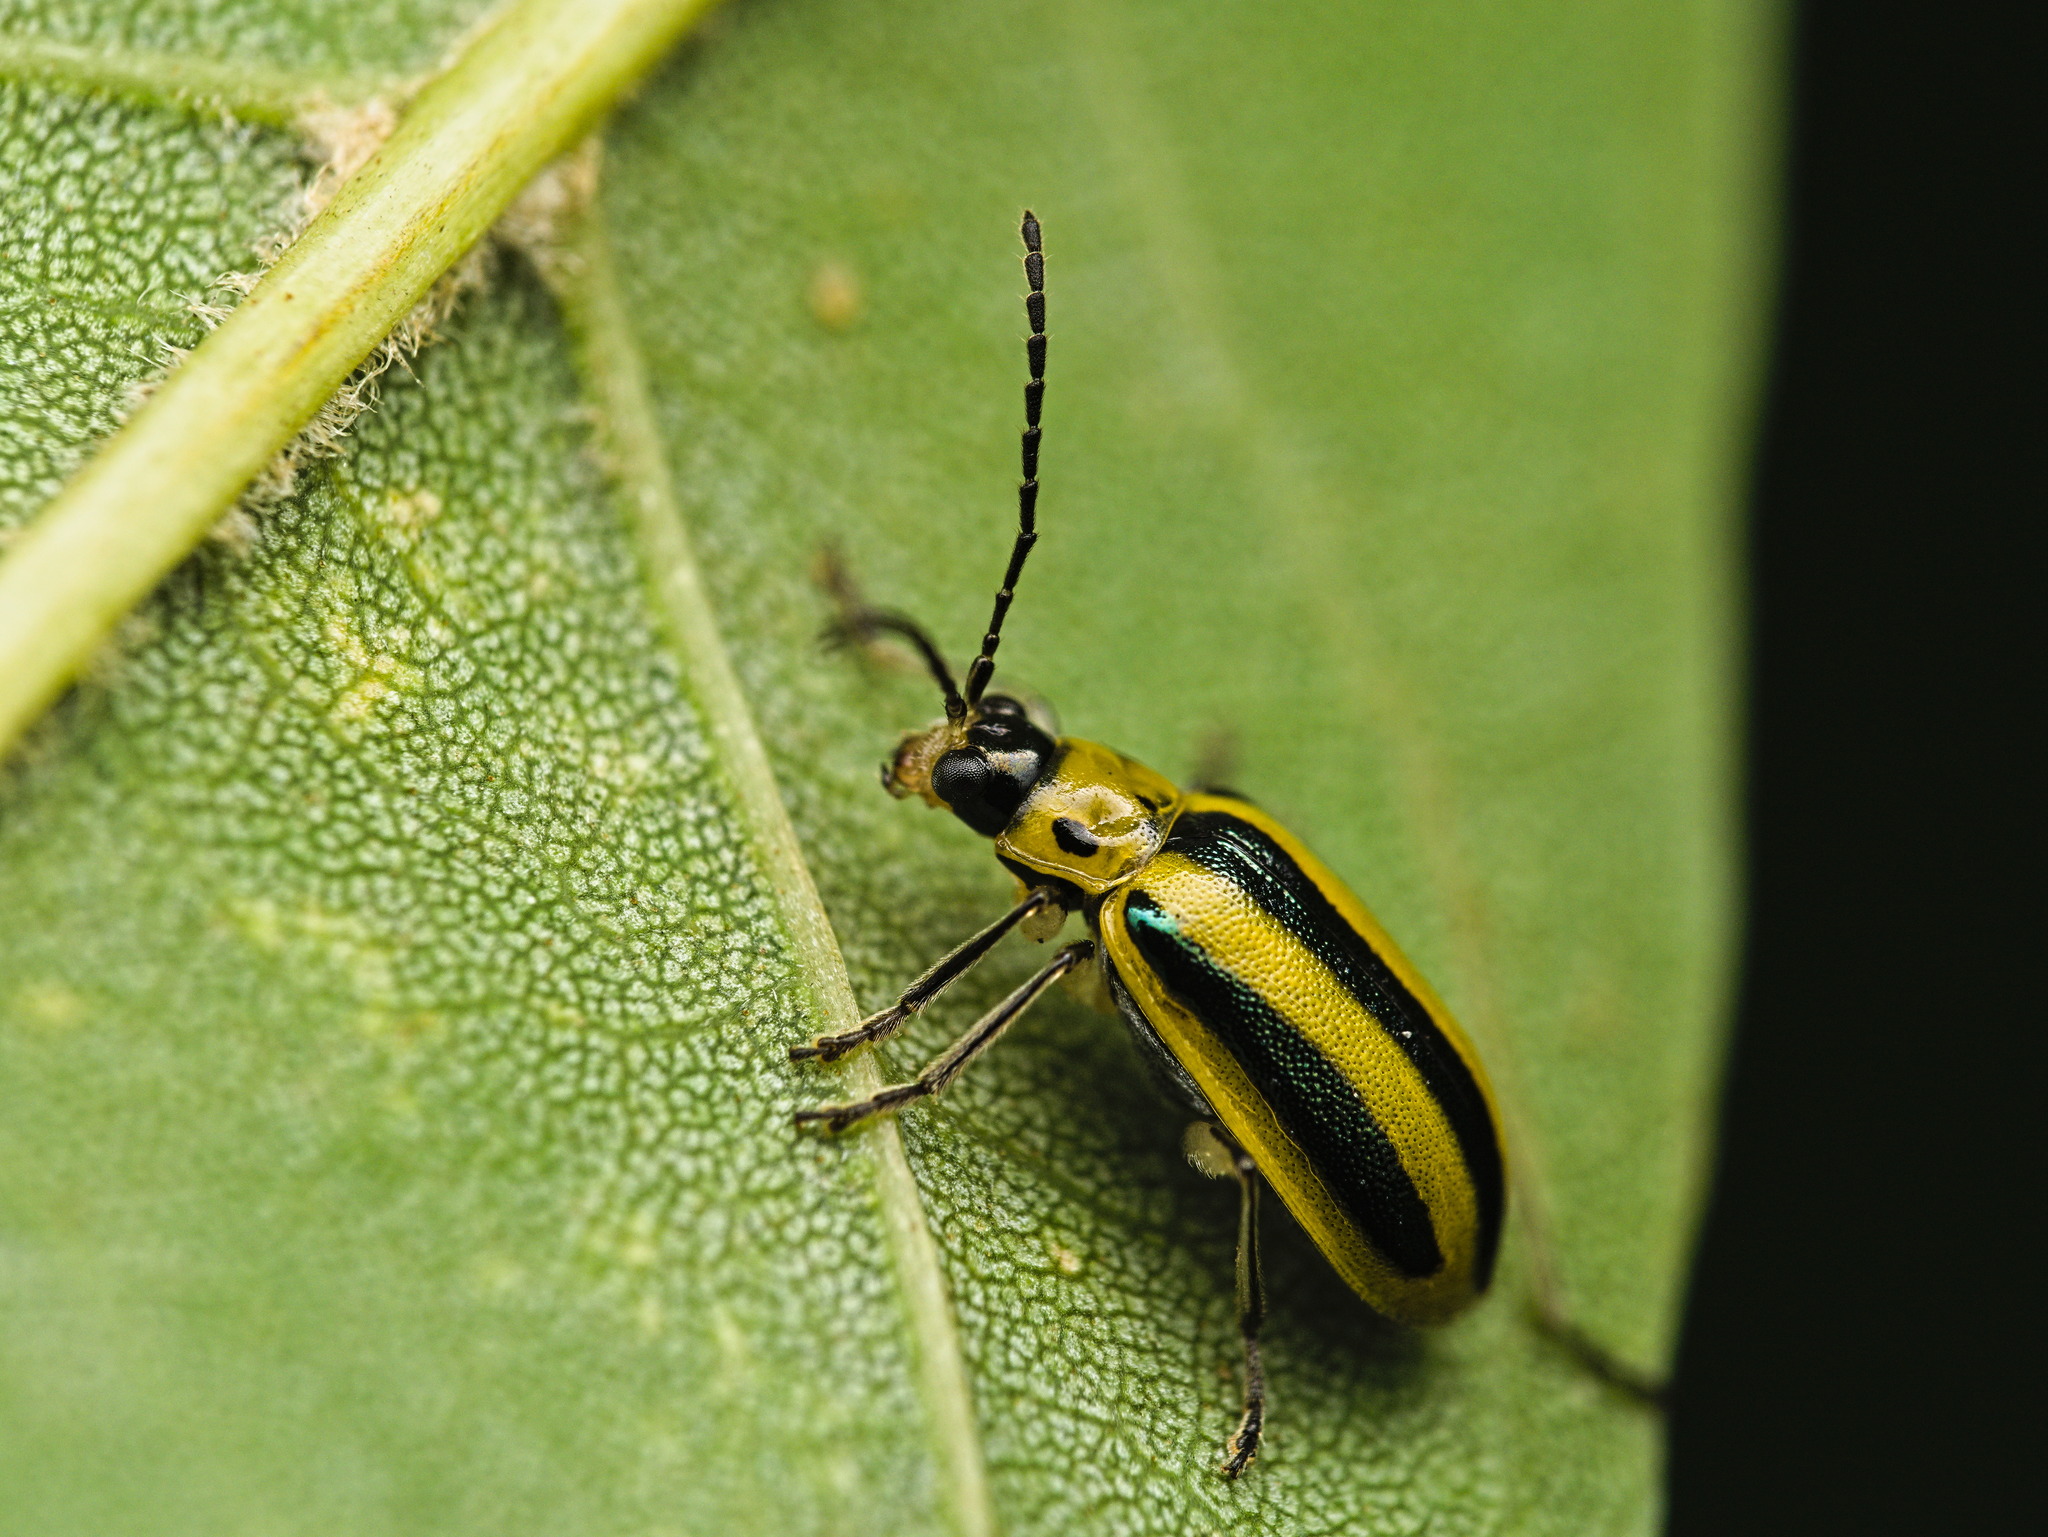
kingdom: Animalia
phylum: Arthropoda
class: Insecta
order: Coleoptera
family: Chrysomelidae
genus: Amphelasma
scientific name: Amphelasma cavum
